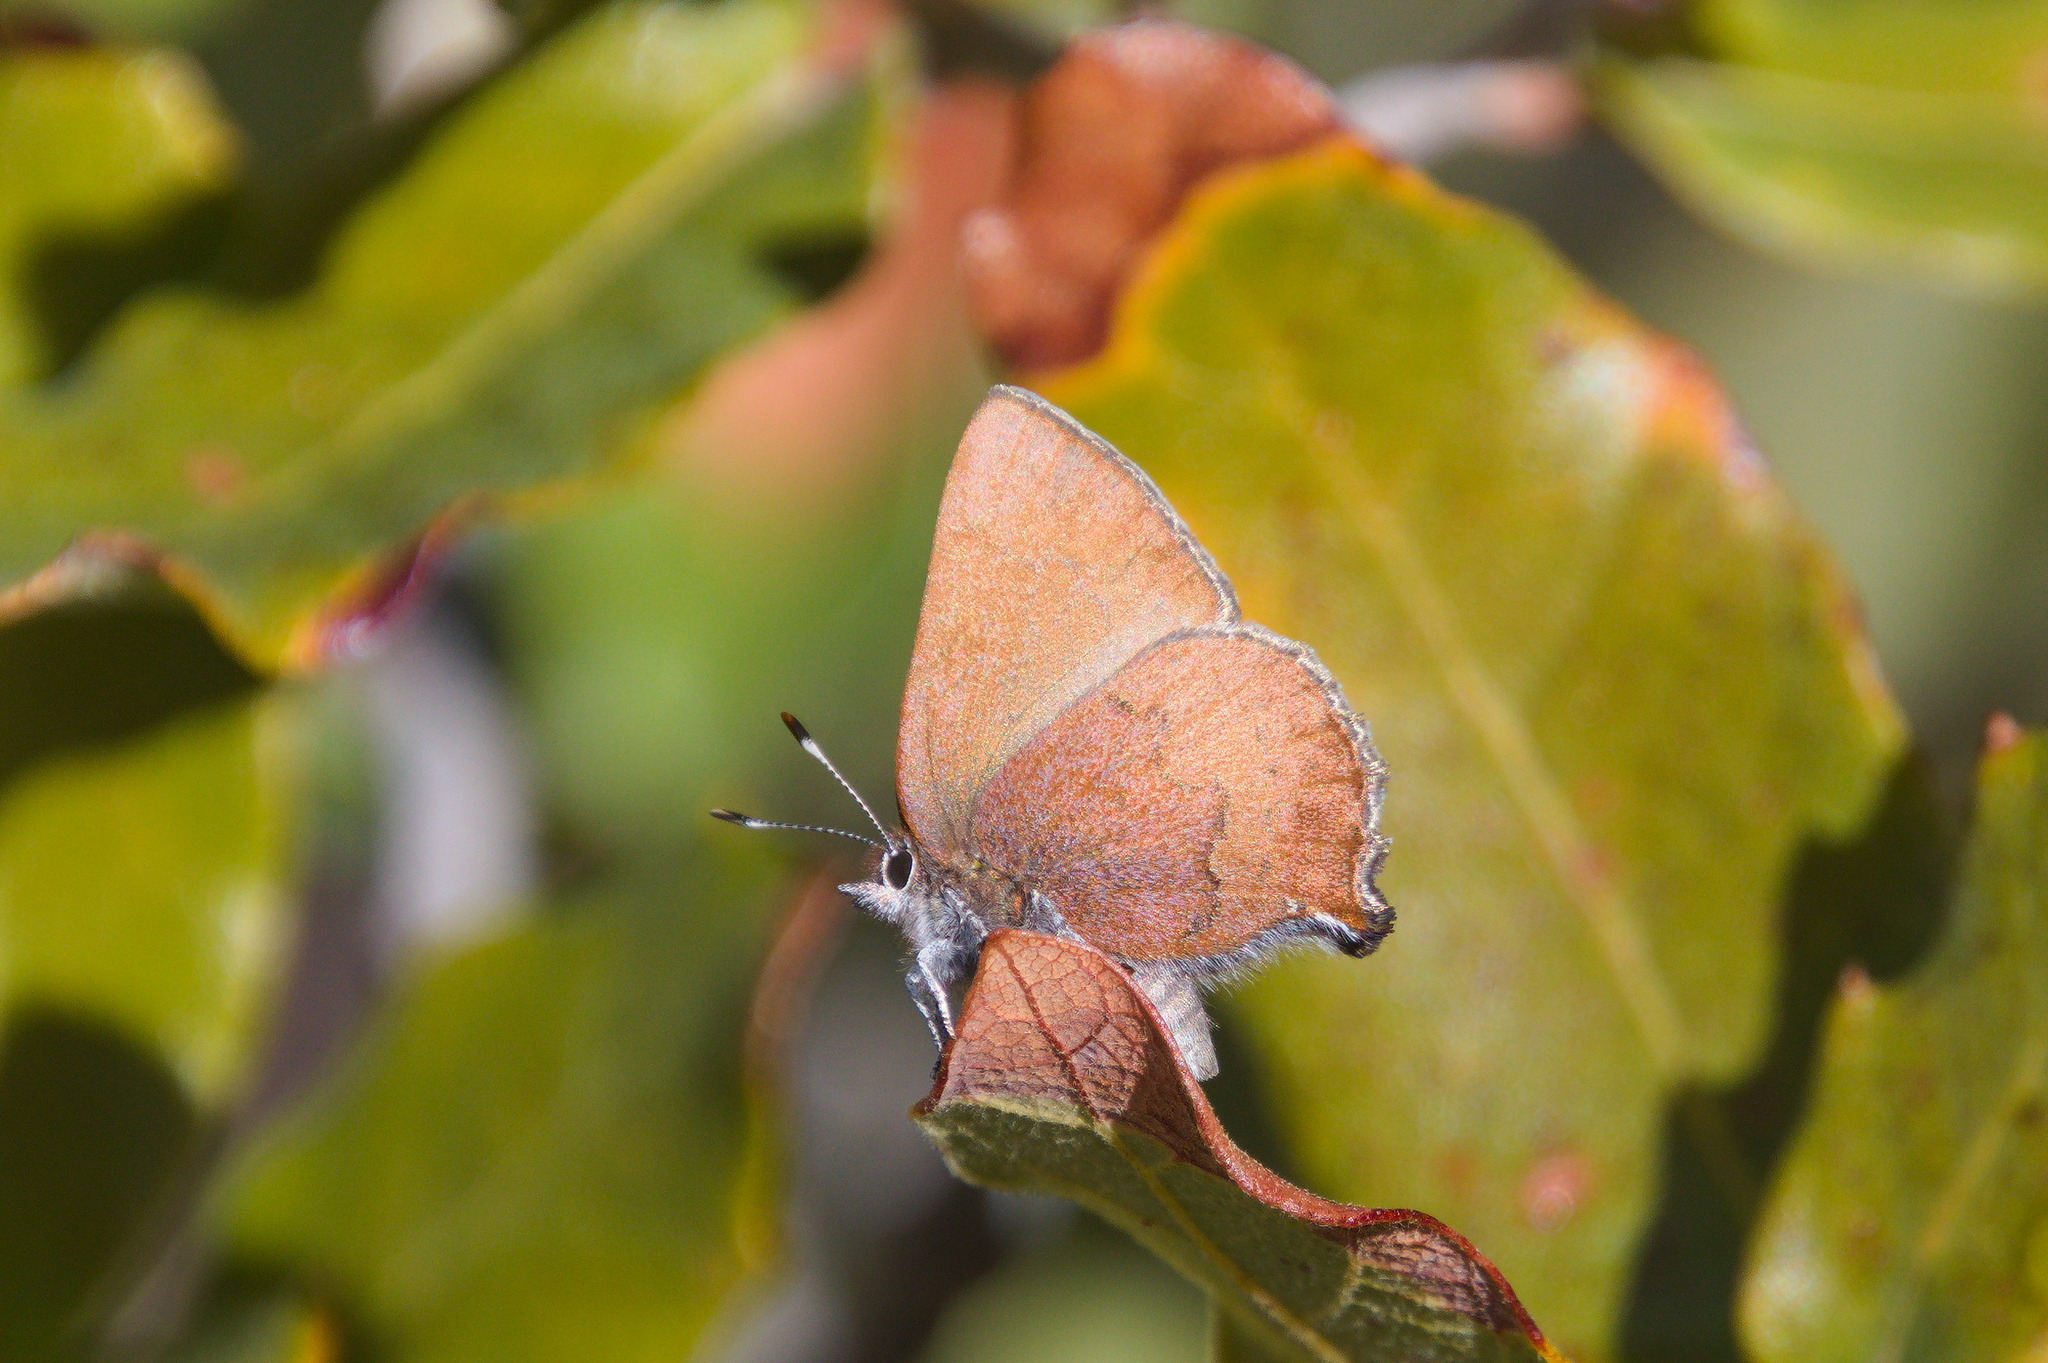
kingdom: Animalia
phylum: Arthropoda
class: Insecta
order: Lepidoptera
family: Lycaenidae
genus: Incisalia
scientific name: Incisalia irioides
